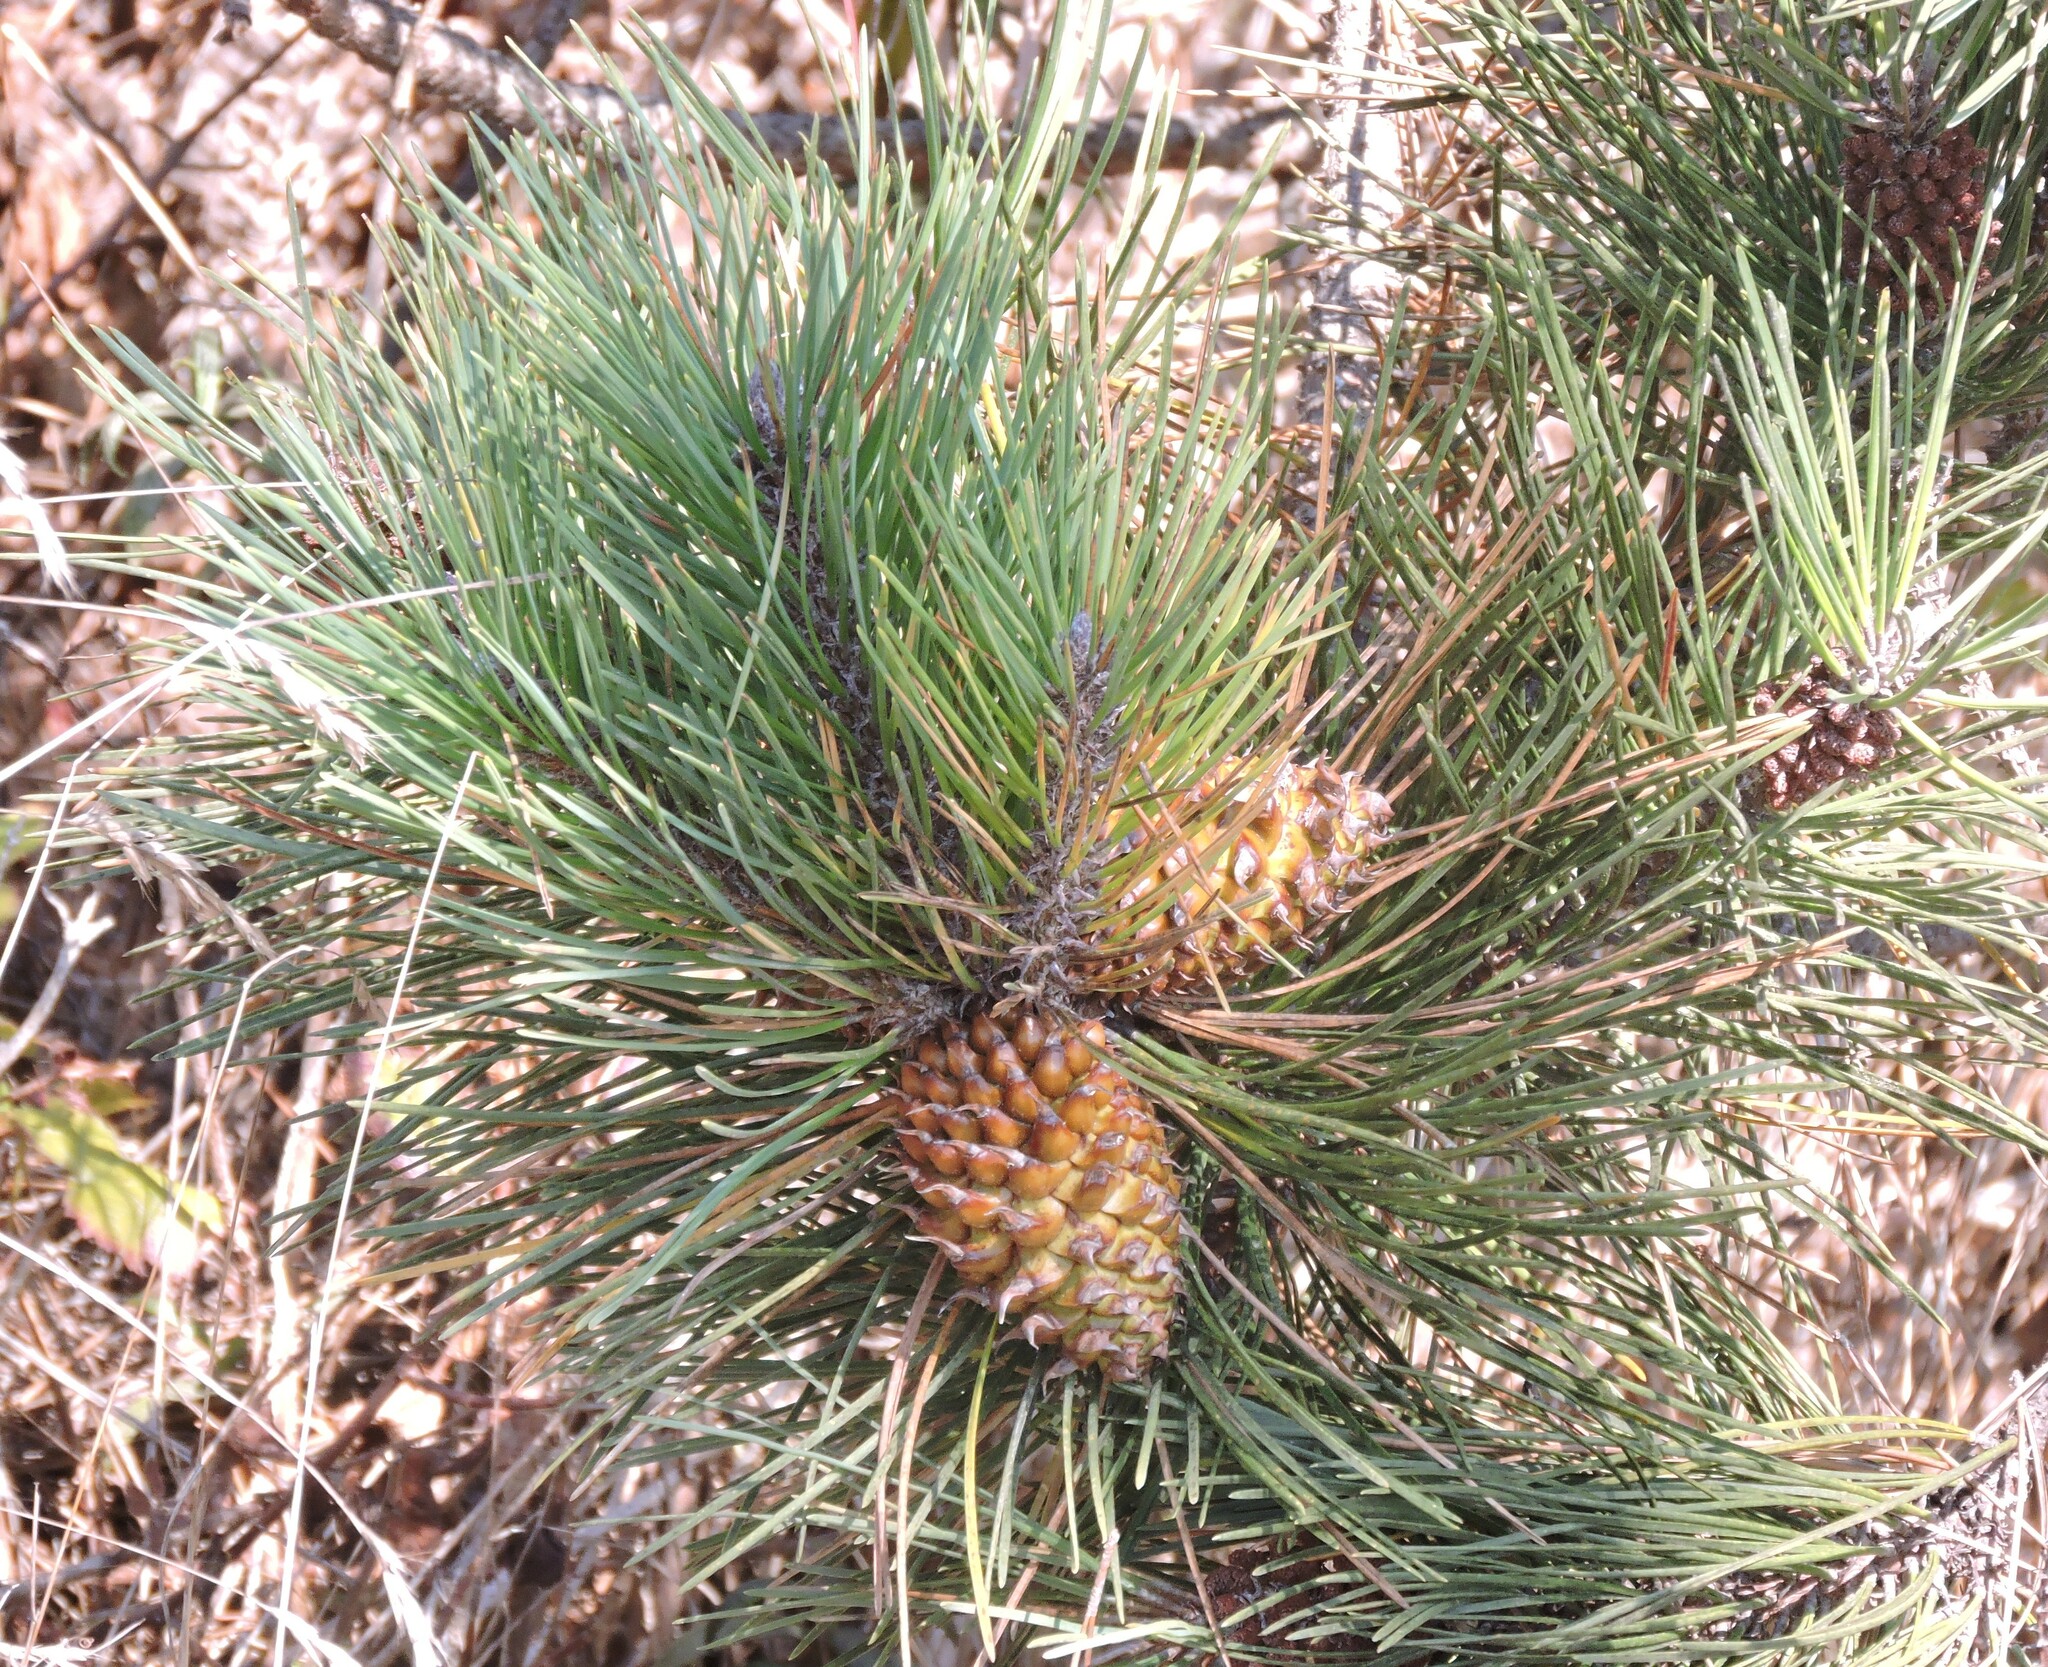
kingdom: Plantae
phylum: Tracheophyta
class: Pinopsida
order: Pinales
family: Pinaceae
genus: Pinus
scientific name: Pinus muricata
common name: Bishop pine
